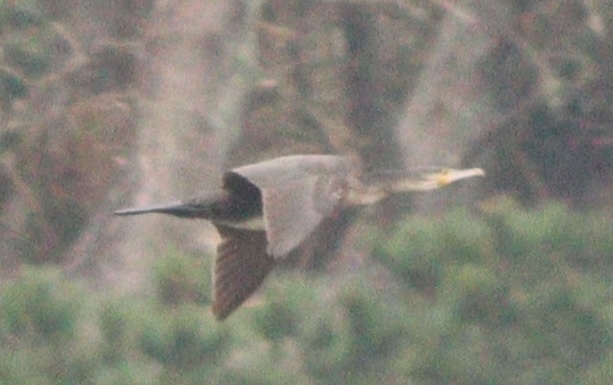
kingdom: Animalia
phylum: Chordata
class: Aves
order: Suliformes
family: Phalacrocoracidae
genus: Phalacrocorax
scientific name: Phalacrocorax carbo
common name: Great cormorant
